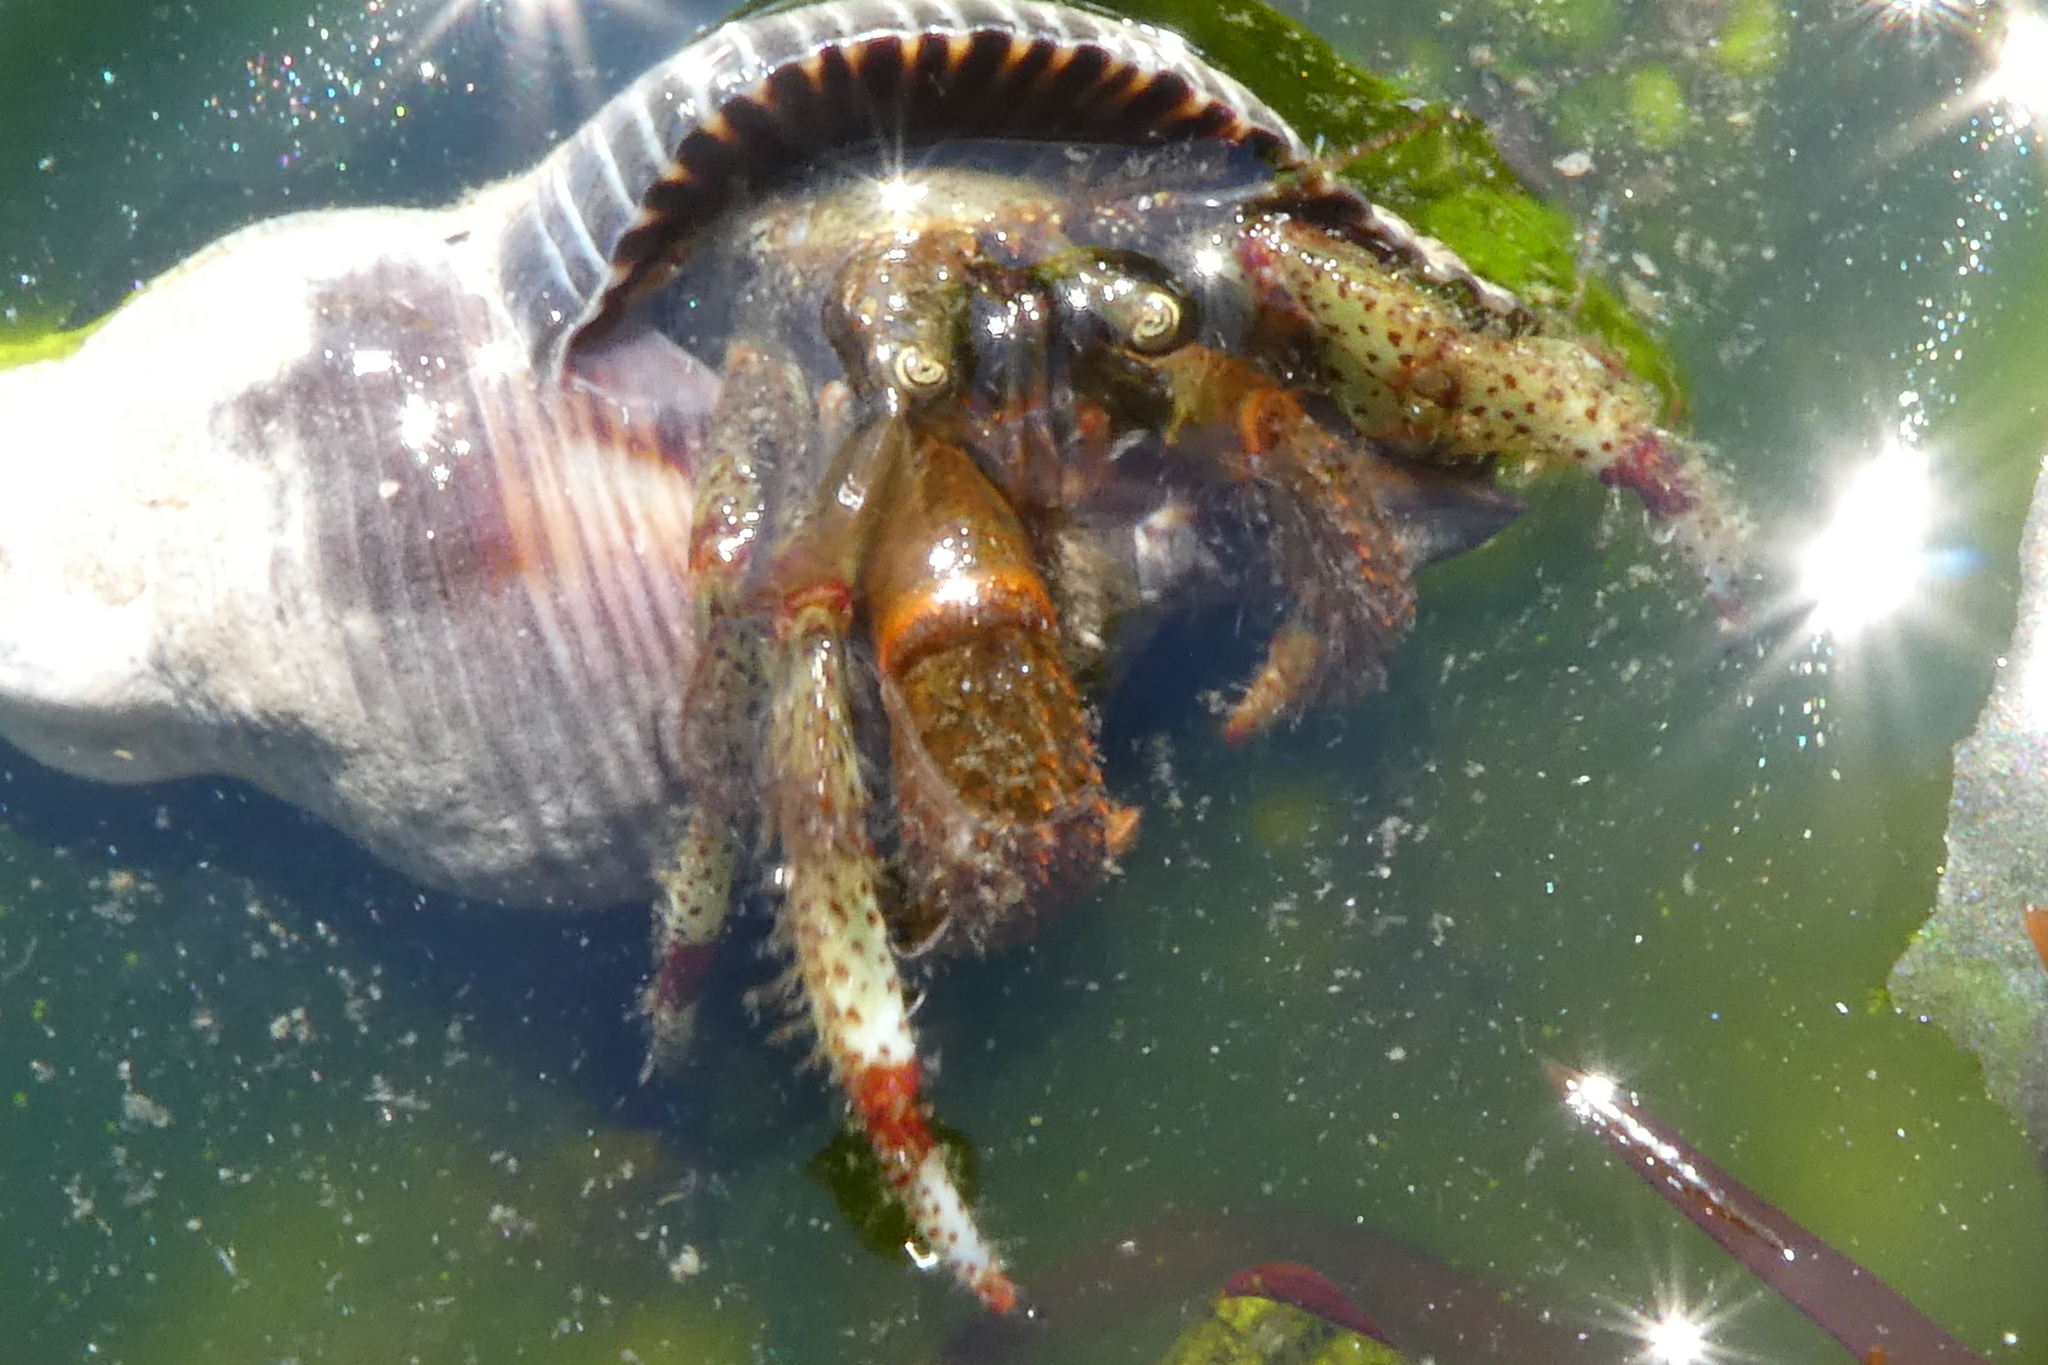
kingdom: Animalia
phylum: Arthropoda
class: Malacostraca
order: Decapoda
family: Paguridae
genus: Pagurus
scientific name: Pagurus beringanus
